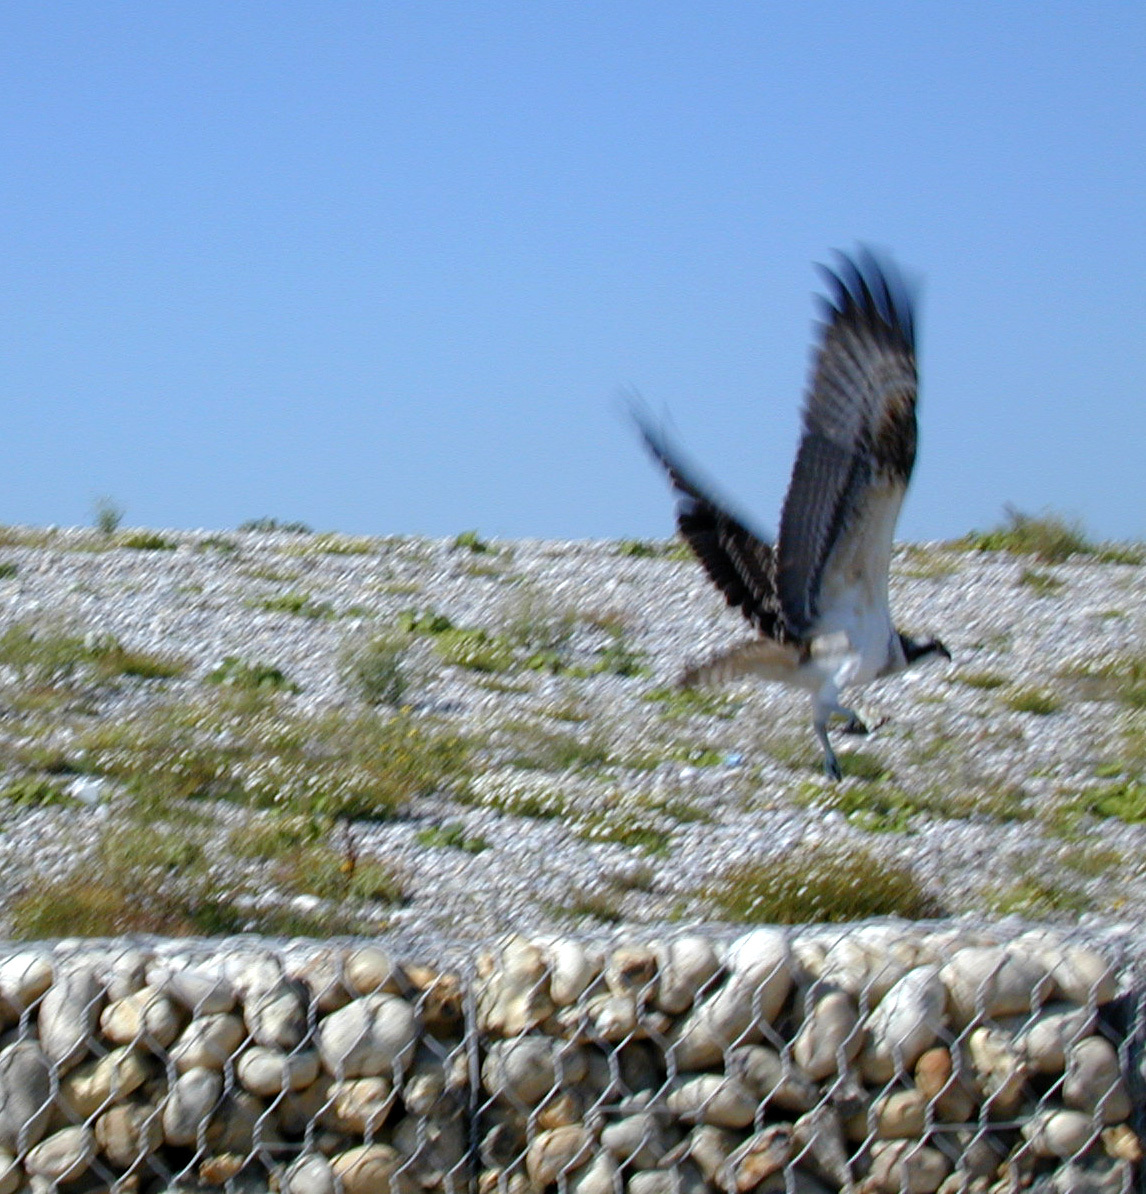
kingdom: Animalia
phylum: Chordata
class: Aves
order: Accipitriformes
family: Pandionidae
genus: Pandion
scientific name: Pandion haliaetus
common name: Osprey
